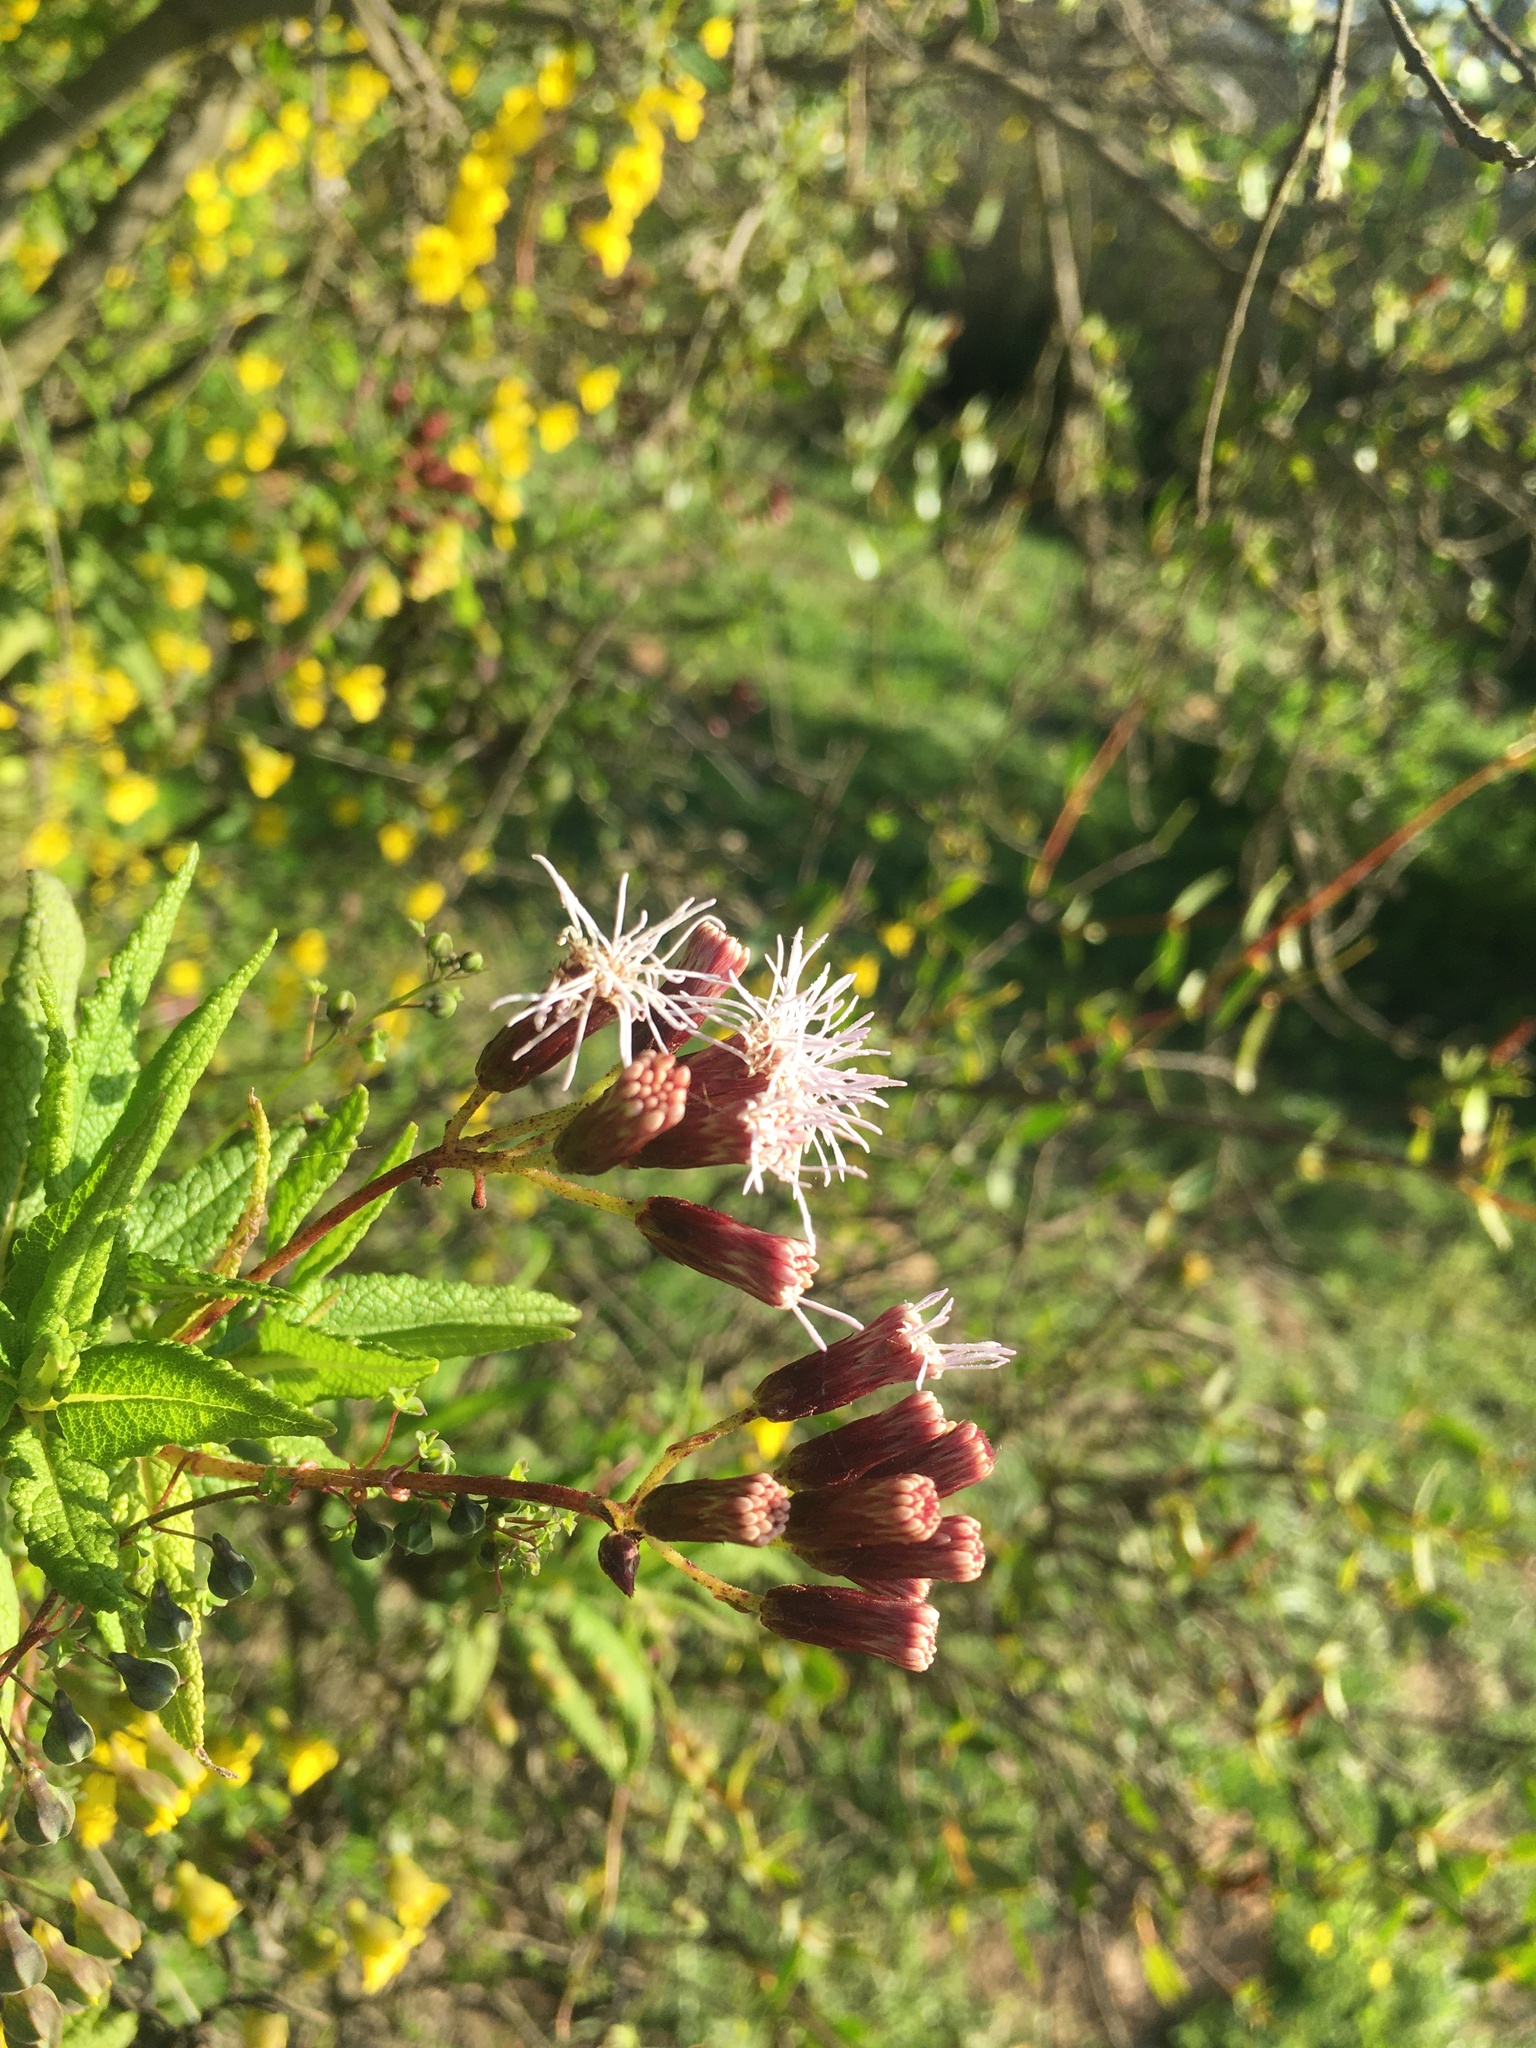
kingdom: Plantae
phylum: Tracheophyta
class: Magnoliopsida
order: Asterales
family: Asteraceae
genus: Aristeguietia
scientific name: Aristeguietia salvia
